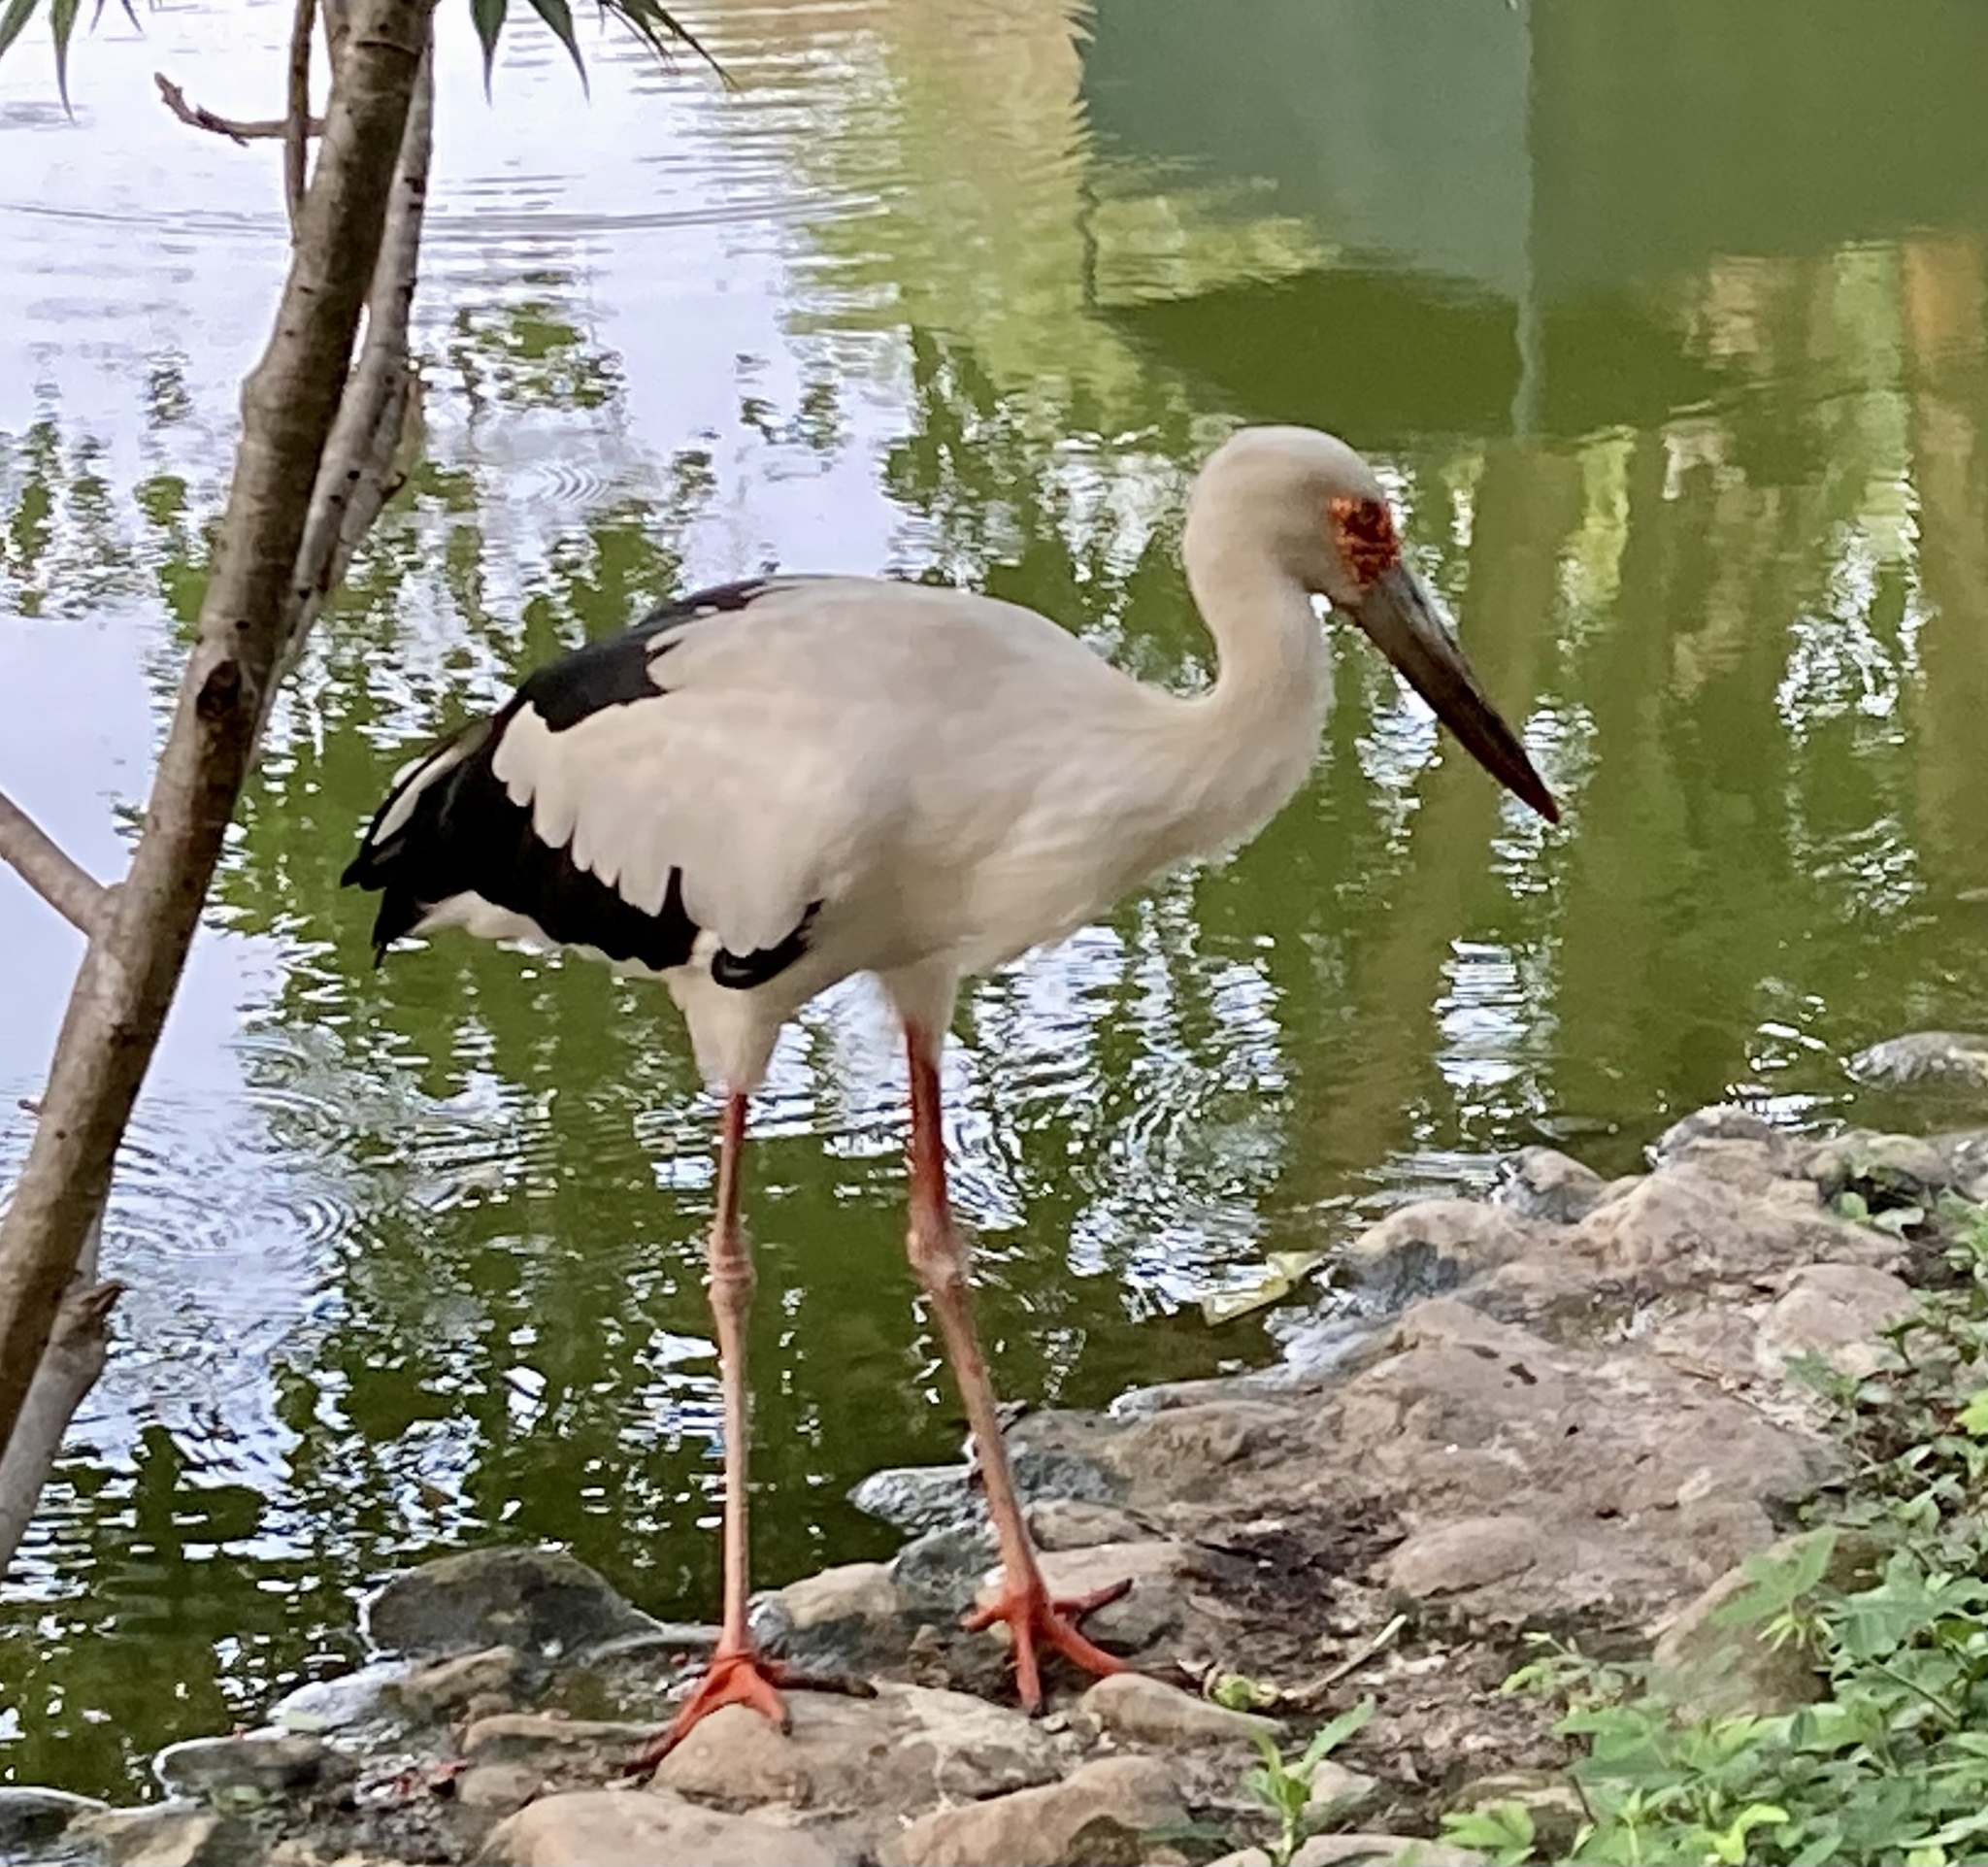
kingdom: Animalia
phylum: Chordata
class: Aves
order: Ciconiiformes
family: Ciconiidae
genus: Ciconia
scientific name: Ciconia maguari
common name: Maguari stork
